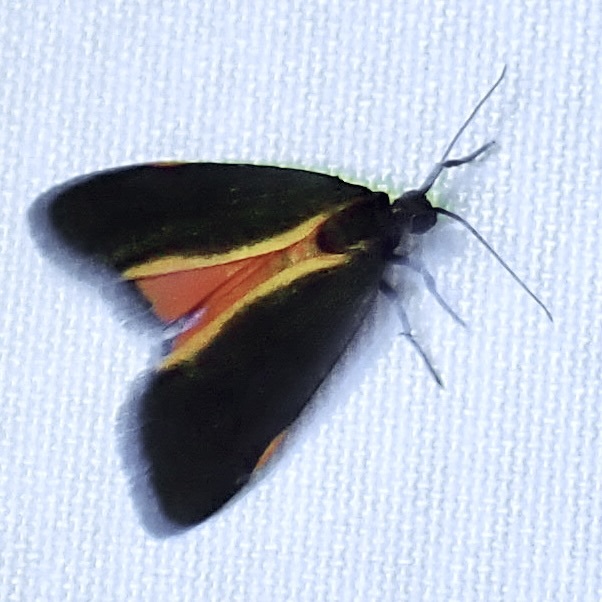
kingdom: Animalia
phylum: Arthropoda
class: Insecta
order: Lepidoptera
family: Erebidae
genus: Cisthene
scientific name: Cisthene juanita
